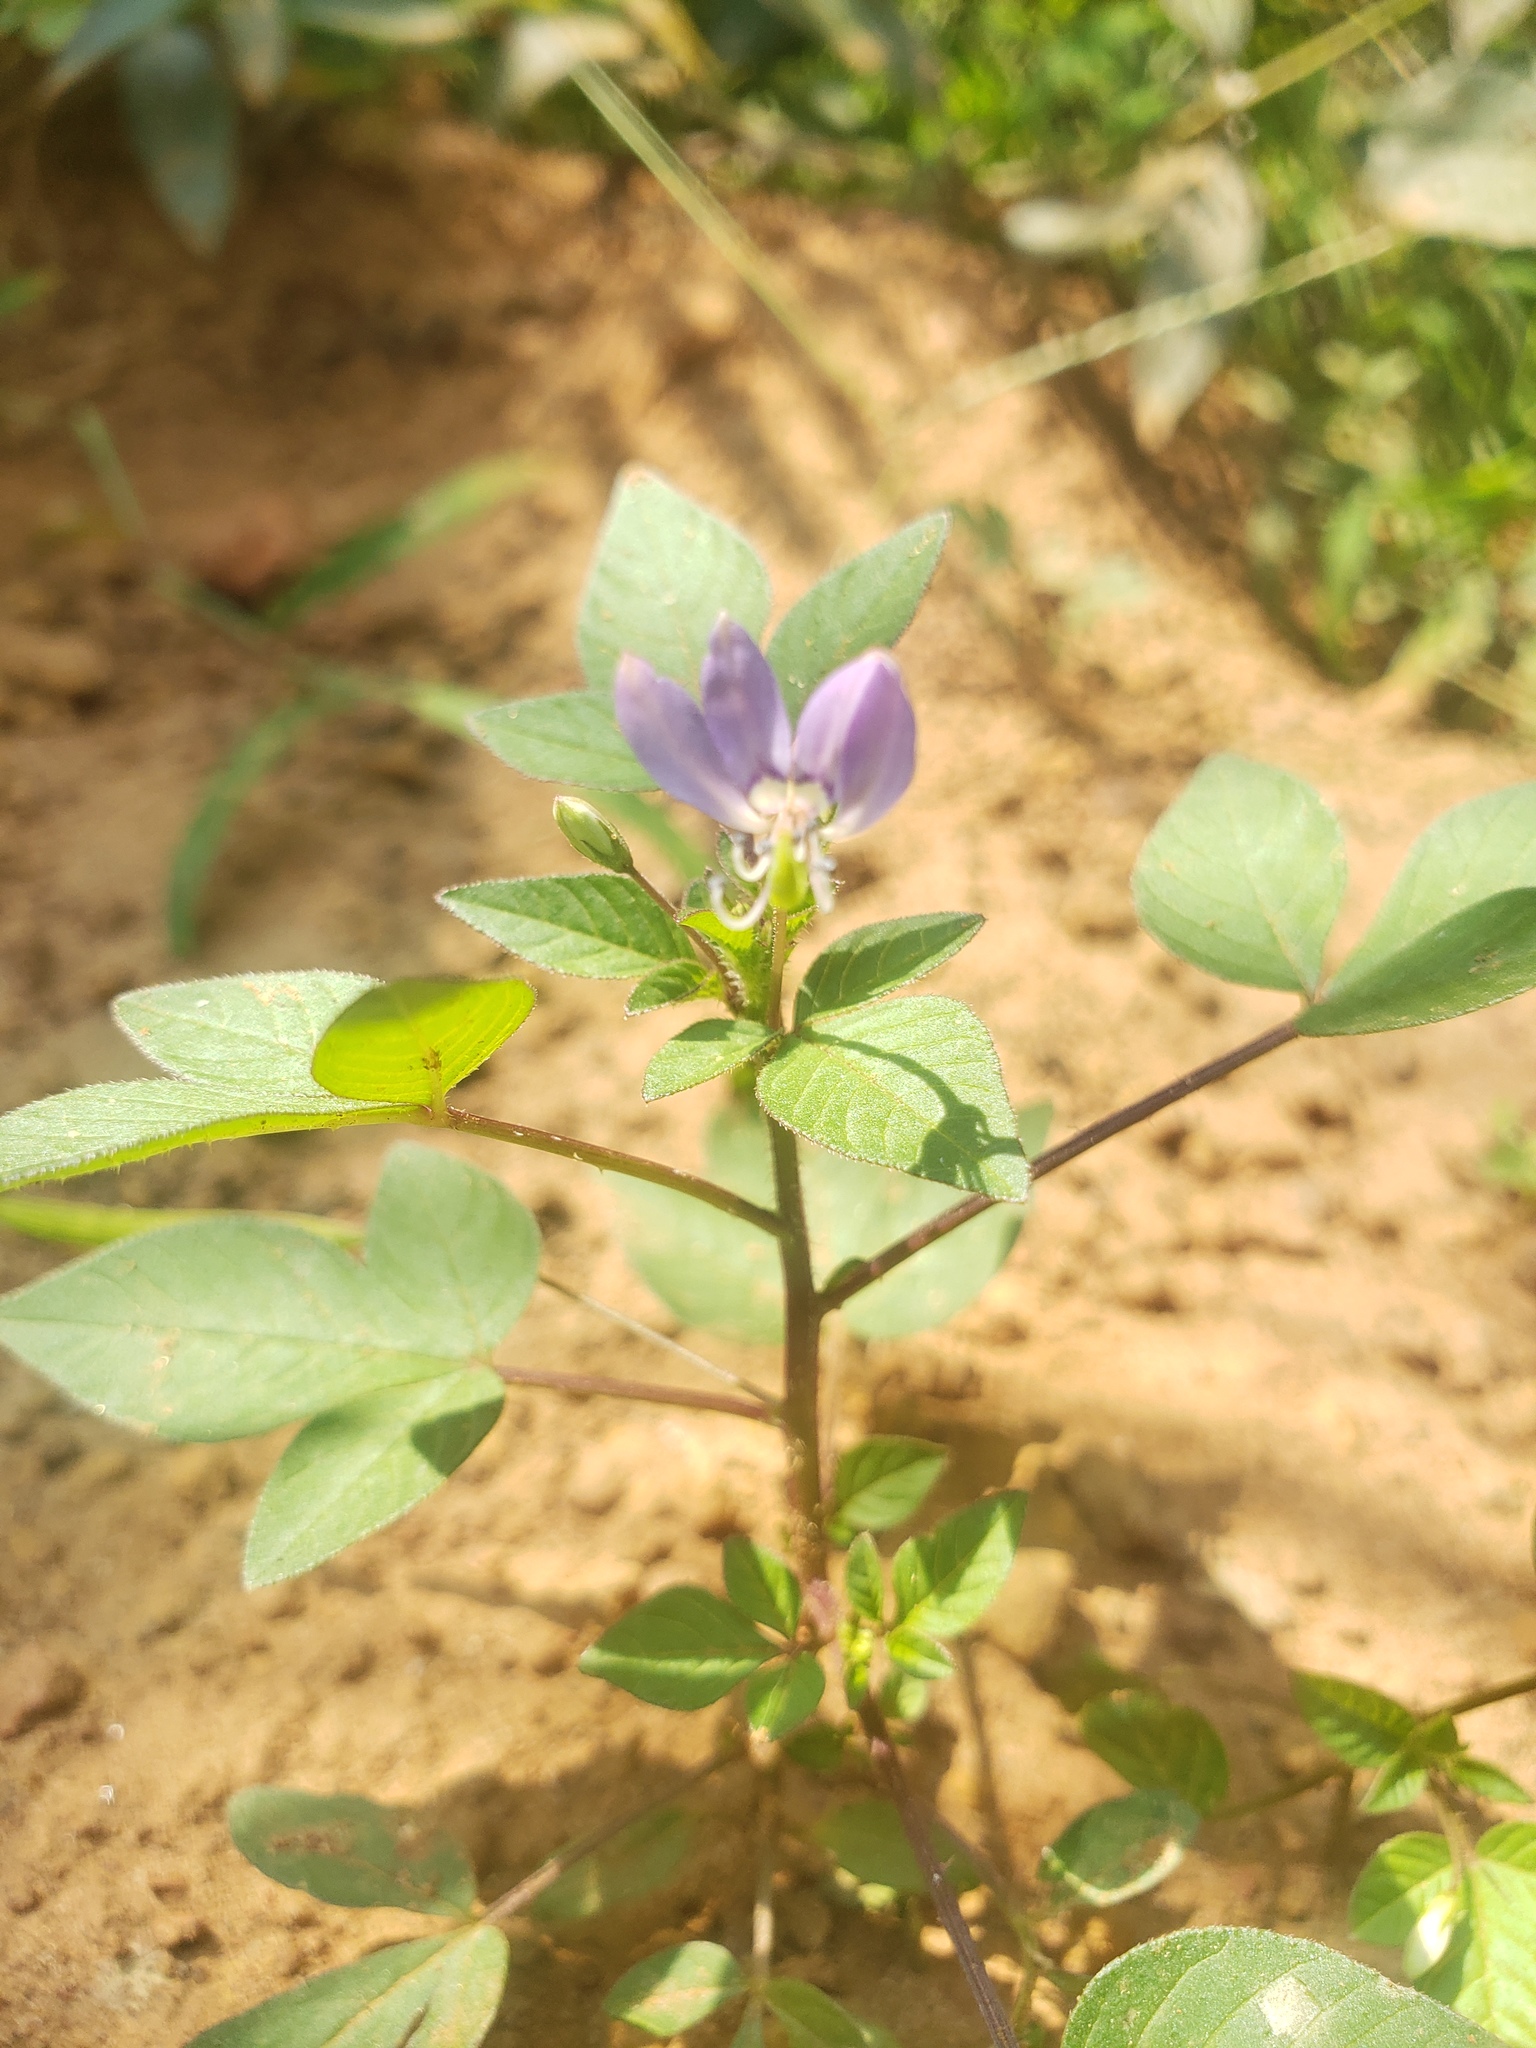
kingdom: Plantae
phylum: Tracheophyta
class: Magnoliopsida
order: Brassicales
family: Cleomaceae
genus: Sieruela
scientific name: Sieruela rutidosperma
